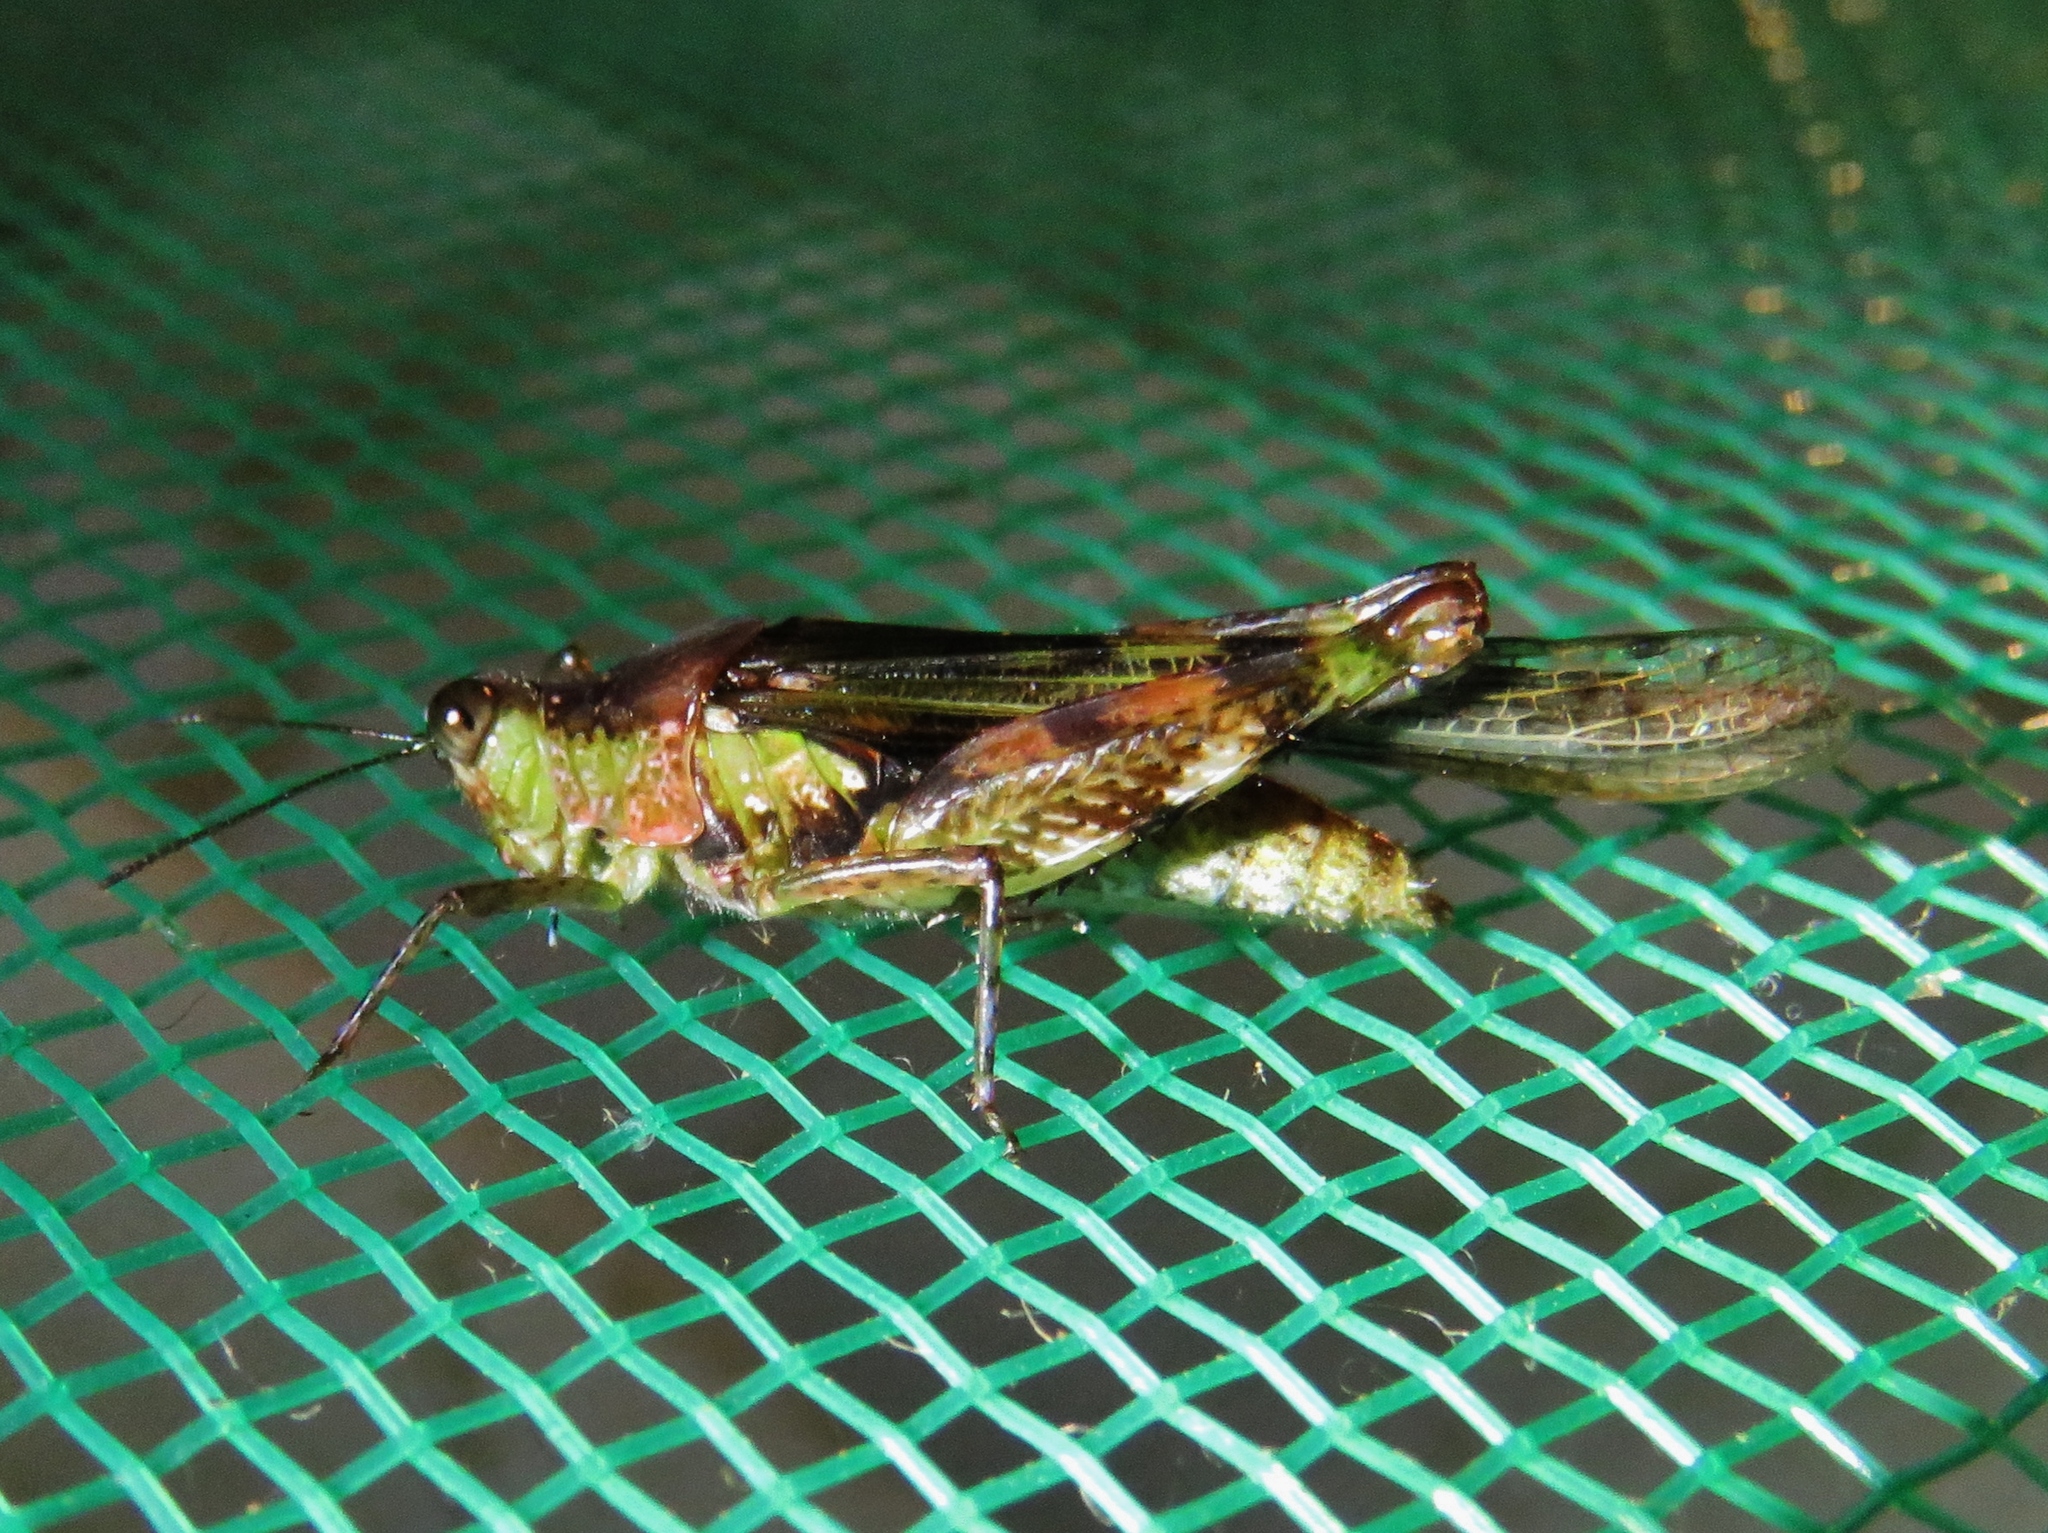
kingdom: Animalia
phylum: Arthropoda
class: Insecta
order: Orthoptera
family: Acrididae
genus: Paulinia
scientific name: Paulinia acuminata
